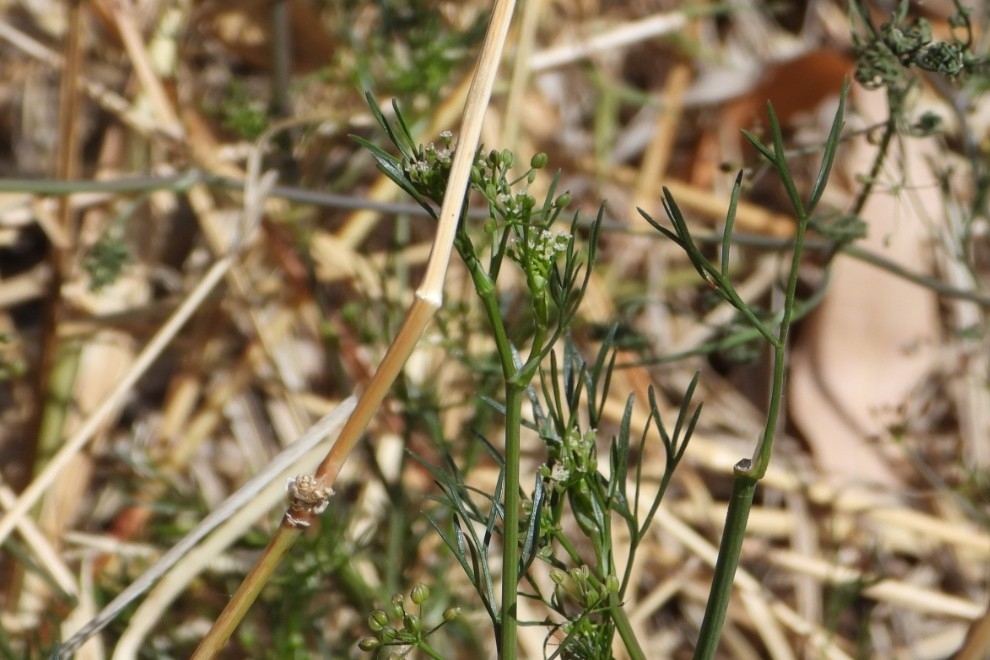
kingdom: Plantae
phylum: Tracheophyta
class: Magnoliopsida
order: Apiales
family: Apiaceae
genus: Cyclospermum
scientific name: Cyclospermum leptophyllum
